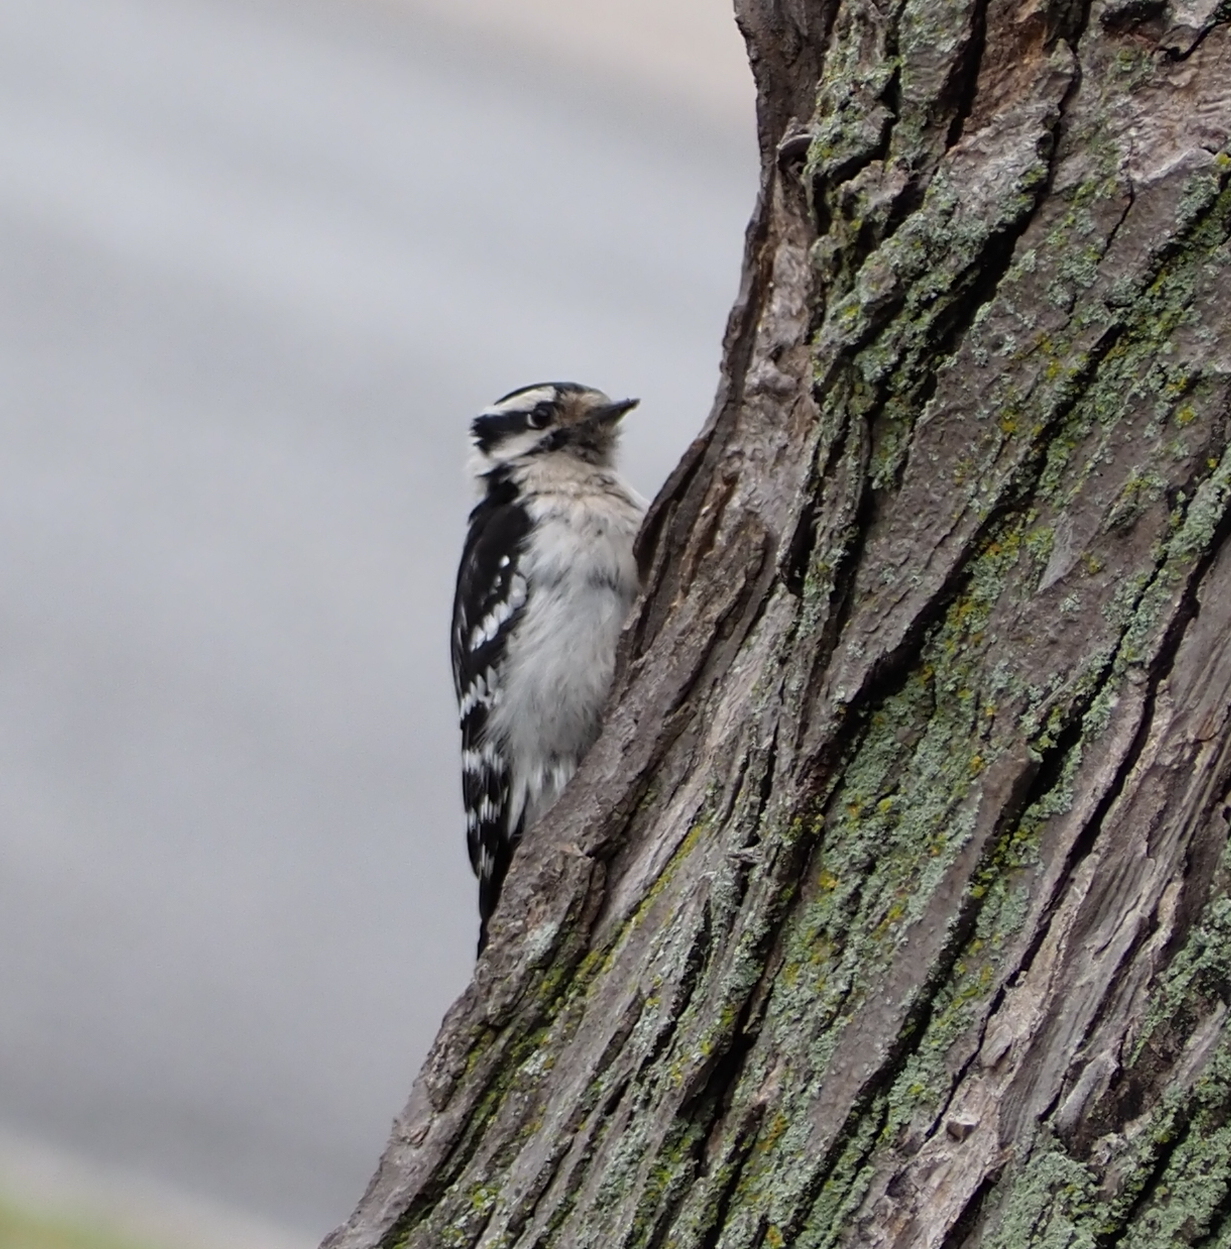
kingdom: Animalia
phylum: Chordata
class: Aves
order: Piciformes
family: Picidae
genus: Dryobates
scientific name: Dryobates pubescens
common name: Downy woodpecker
